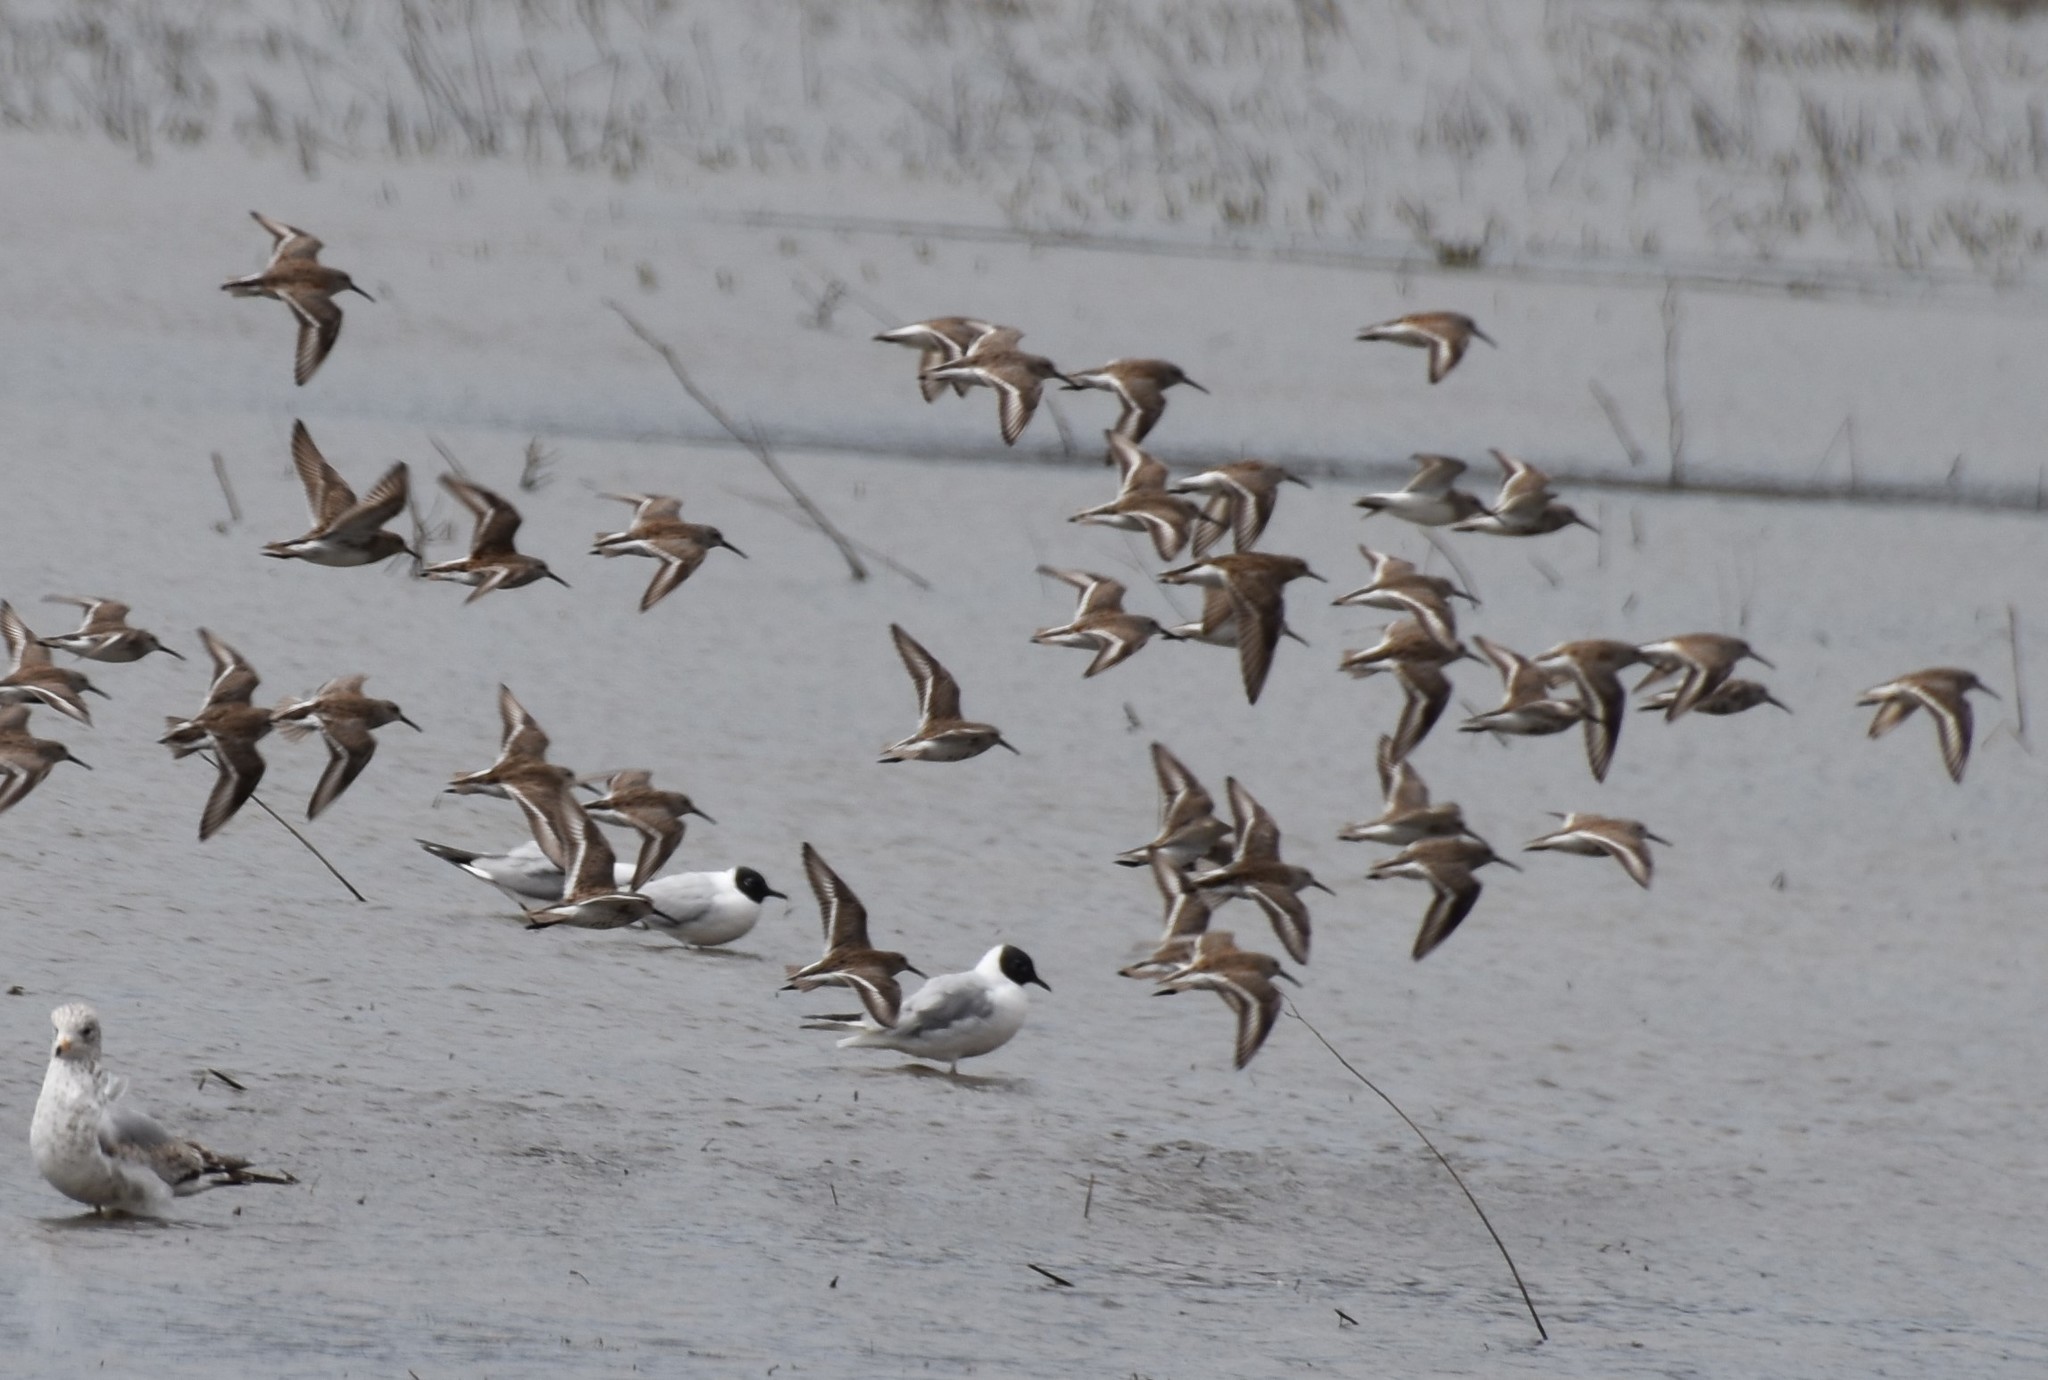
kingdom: Animalia
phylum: Chordata
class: Aves
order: Charadriiformes
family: Scolopacidae
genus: Calidris
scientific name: Calidris alpina
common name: Dunlin
